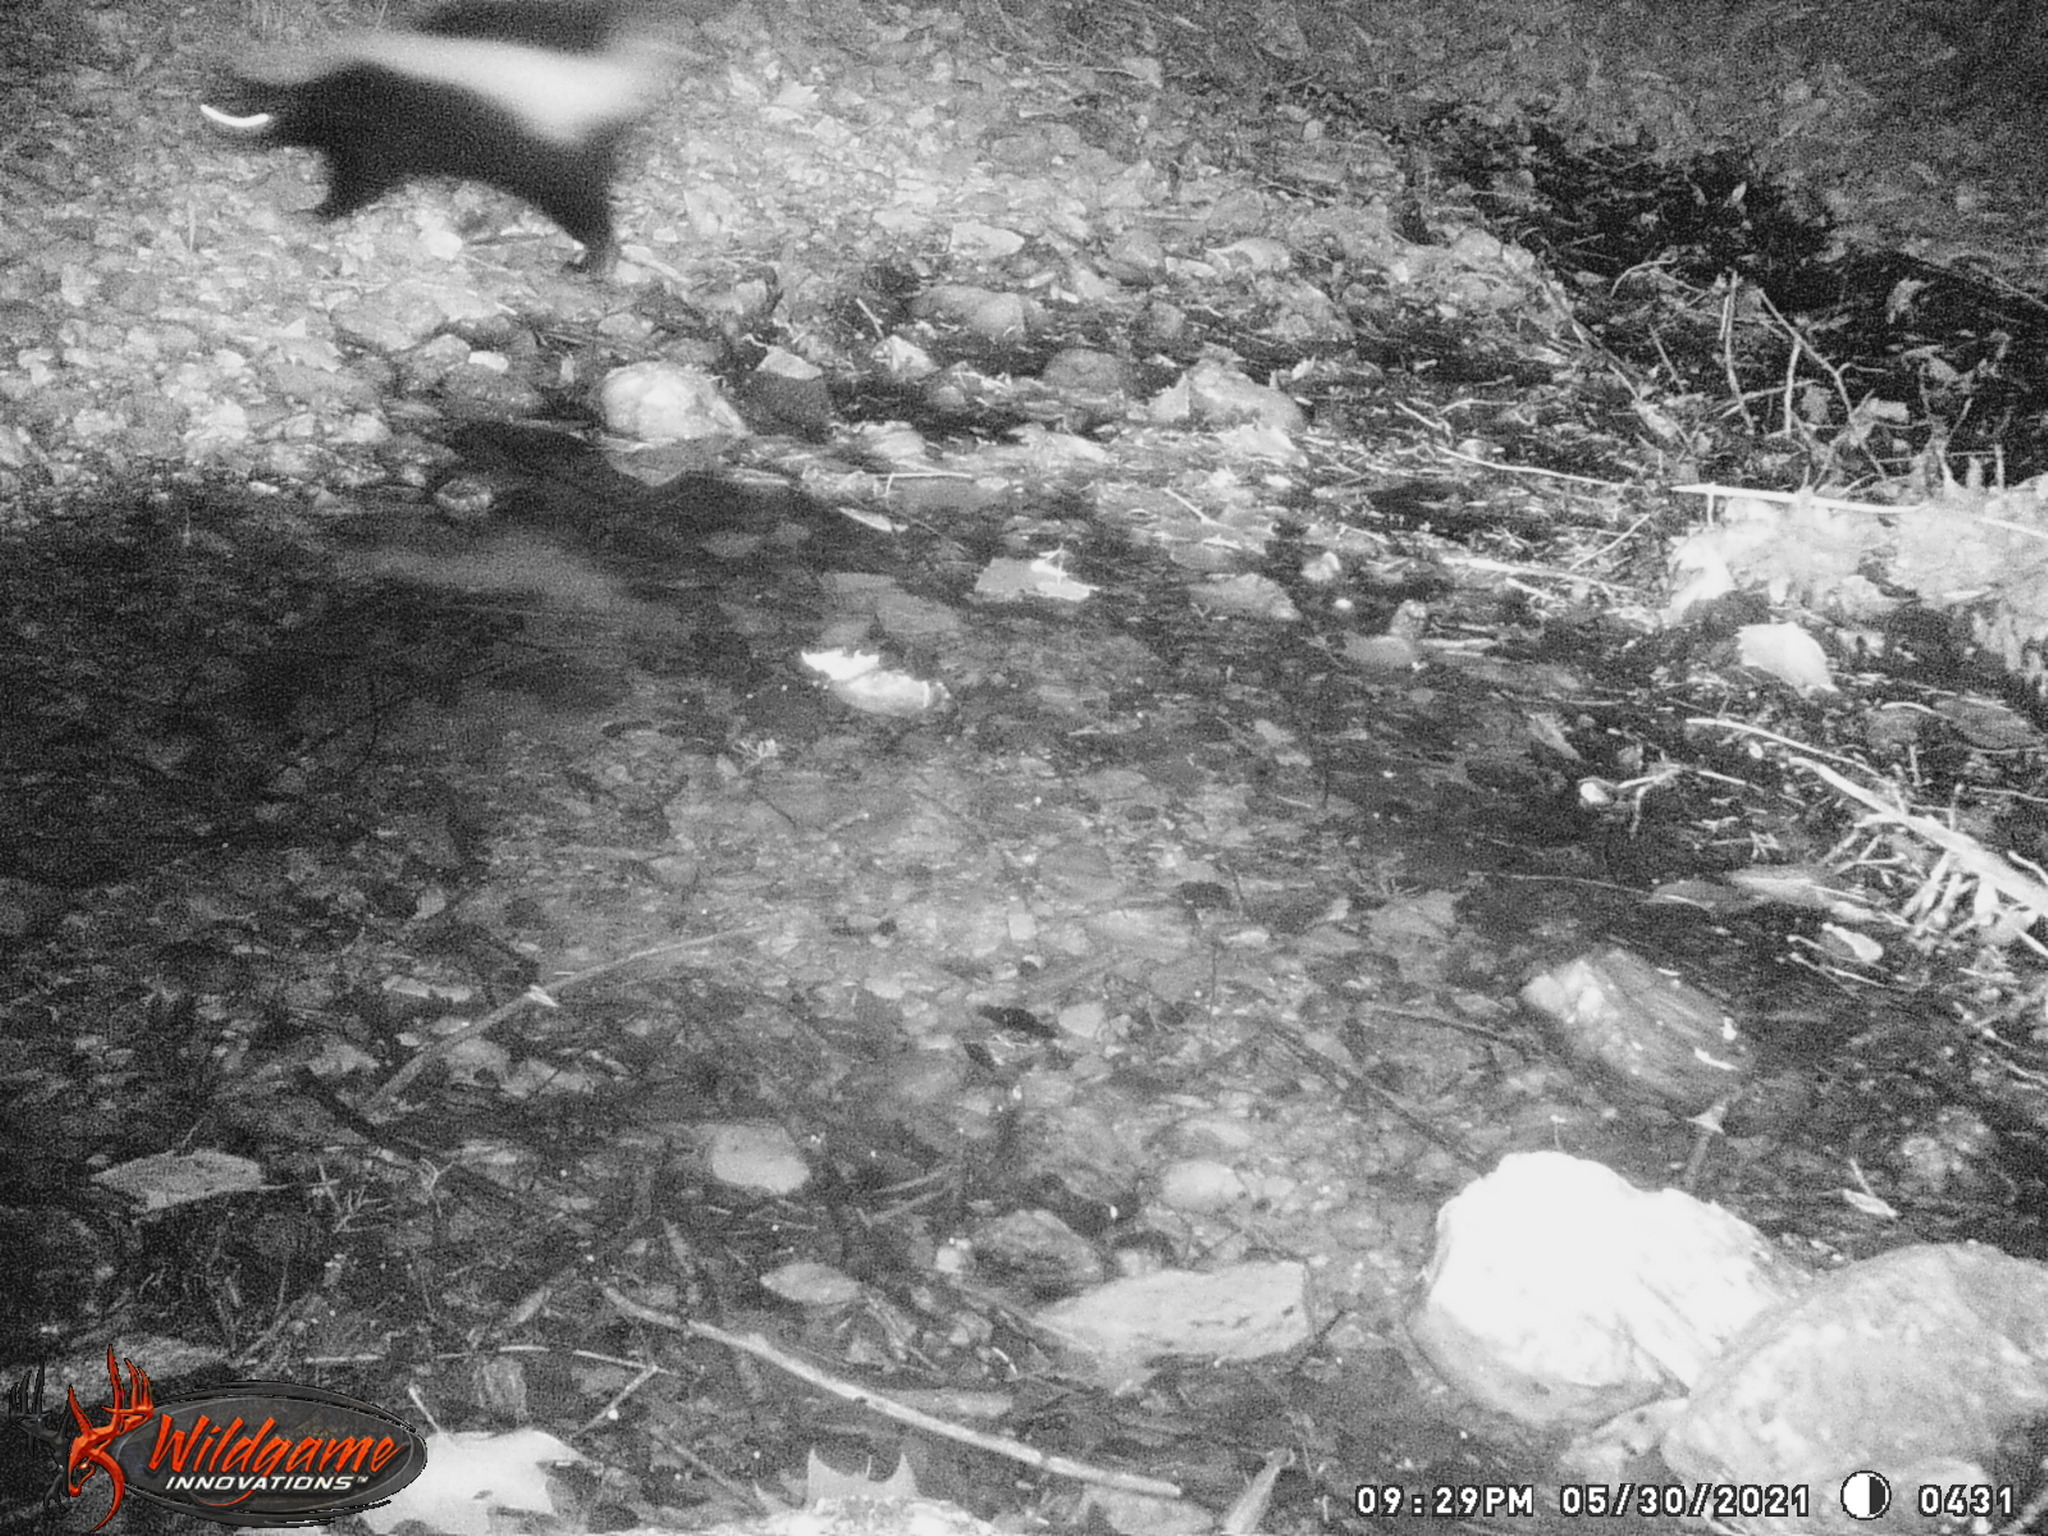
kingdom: Animalia
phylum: Chordata
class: Mammalia
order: Carnivora
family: Mephitidae
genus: Mephitis
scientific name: Mephitis mephitis
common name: Striped skunk
